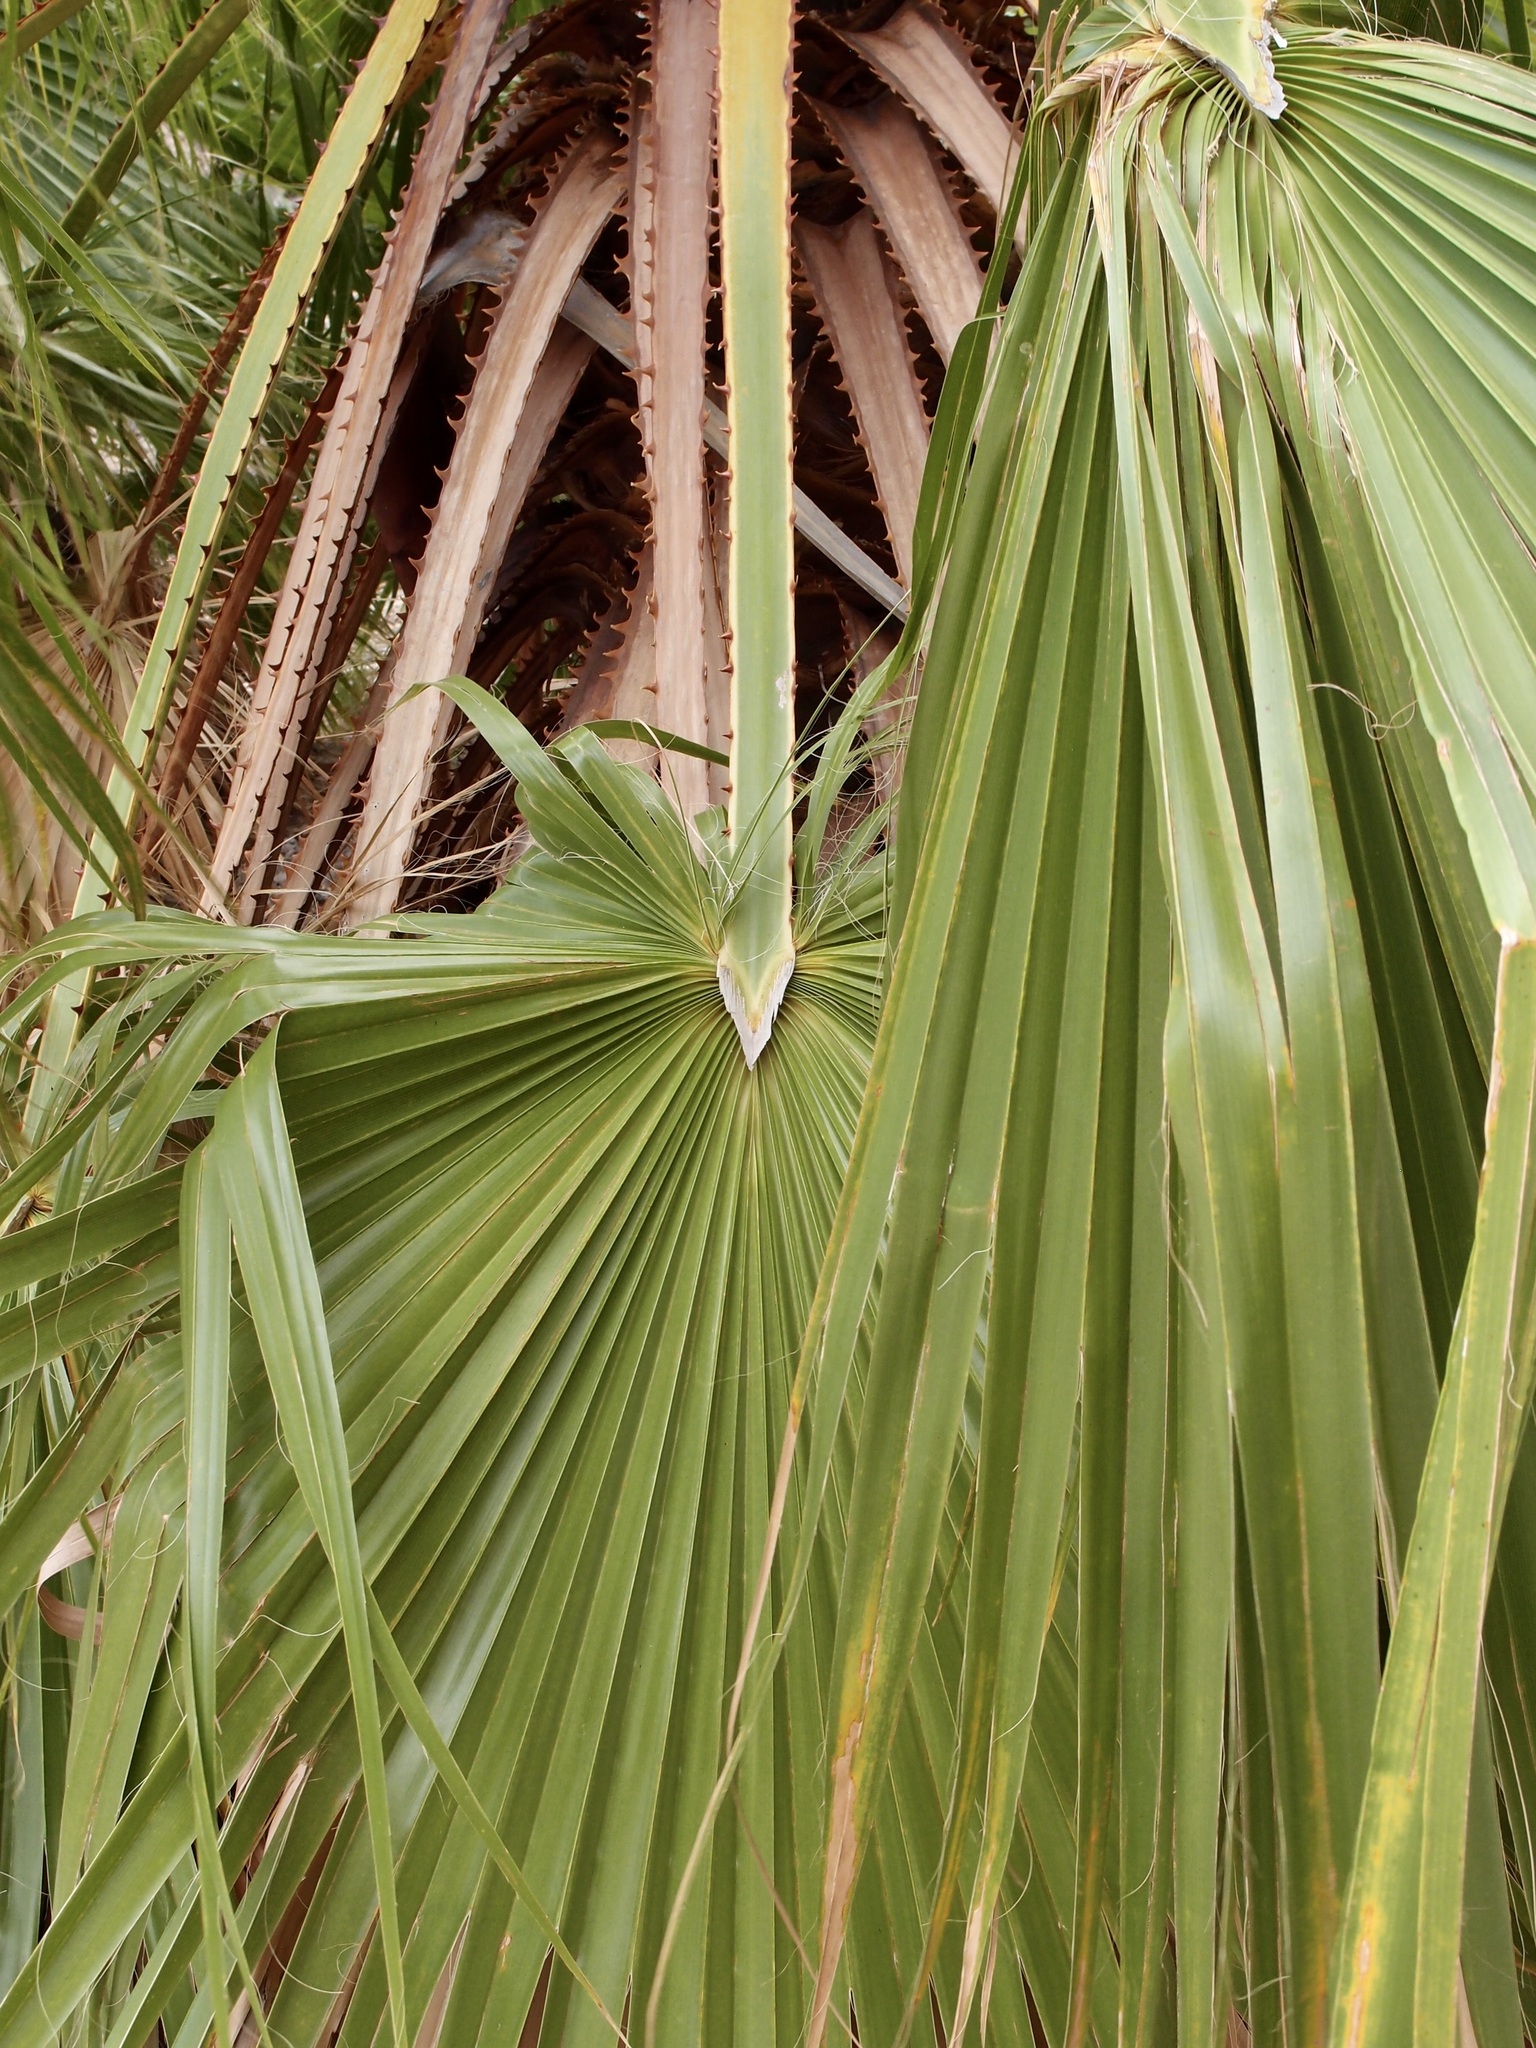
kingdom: Plantae
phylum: Tracheophyta
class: Liliopsida
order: Arecales
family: Arecaceae
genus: Washingtonia
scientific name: Washingtonia robusta
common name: Mexican fan palm
